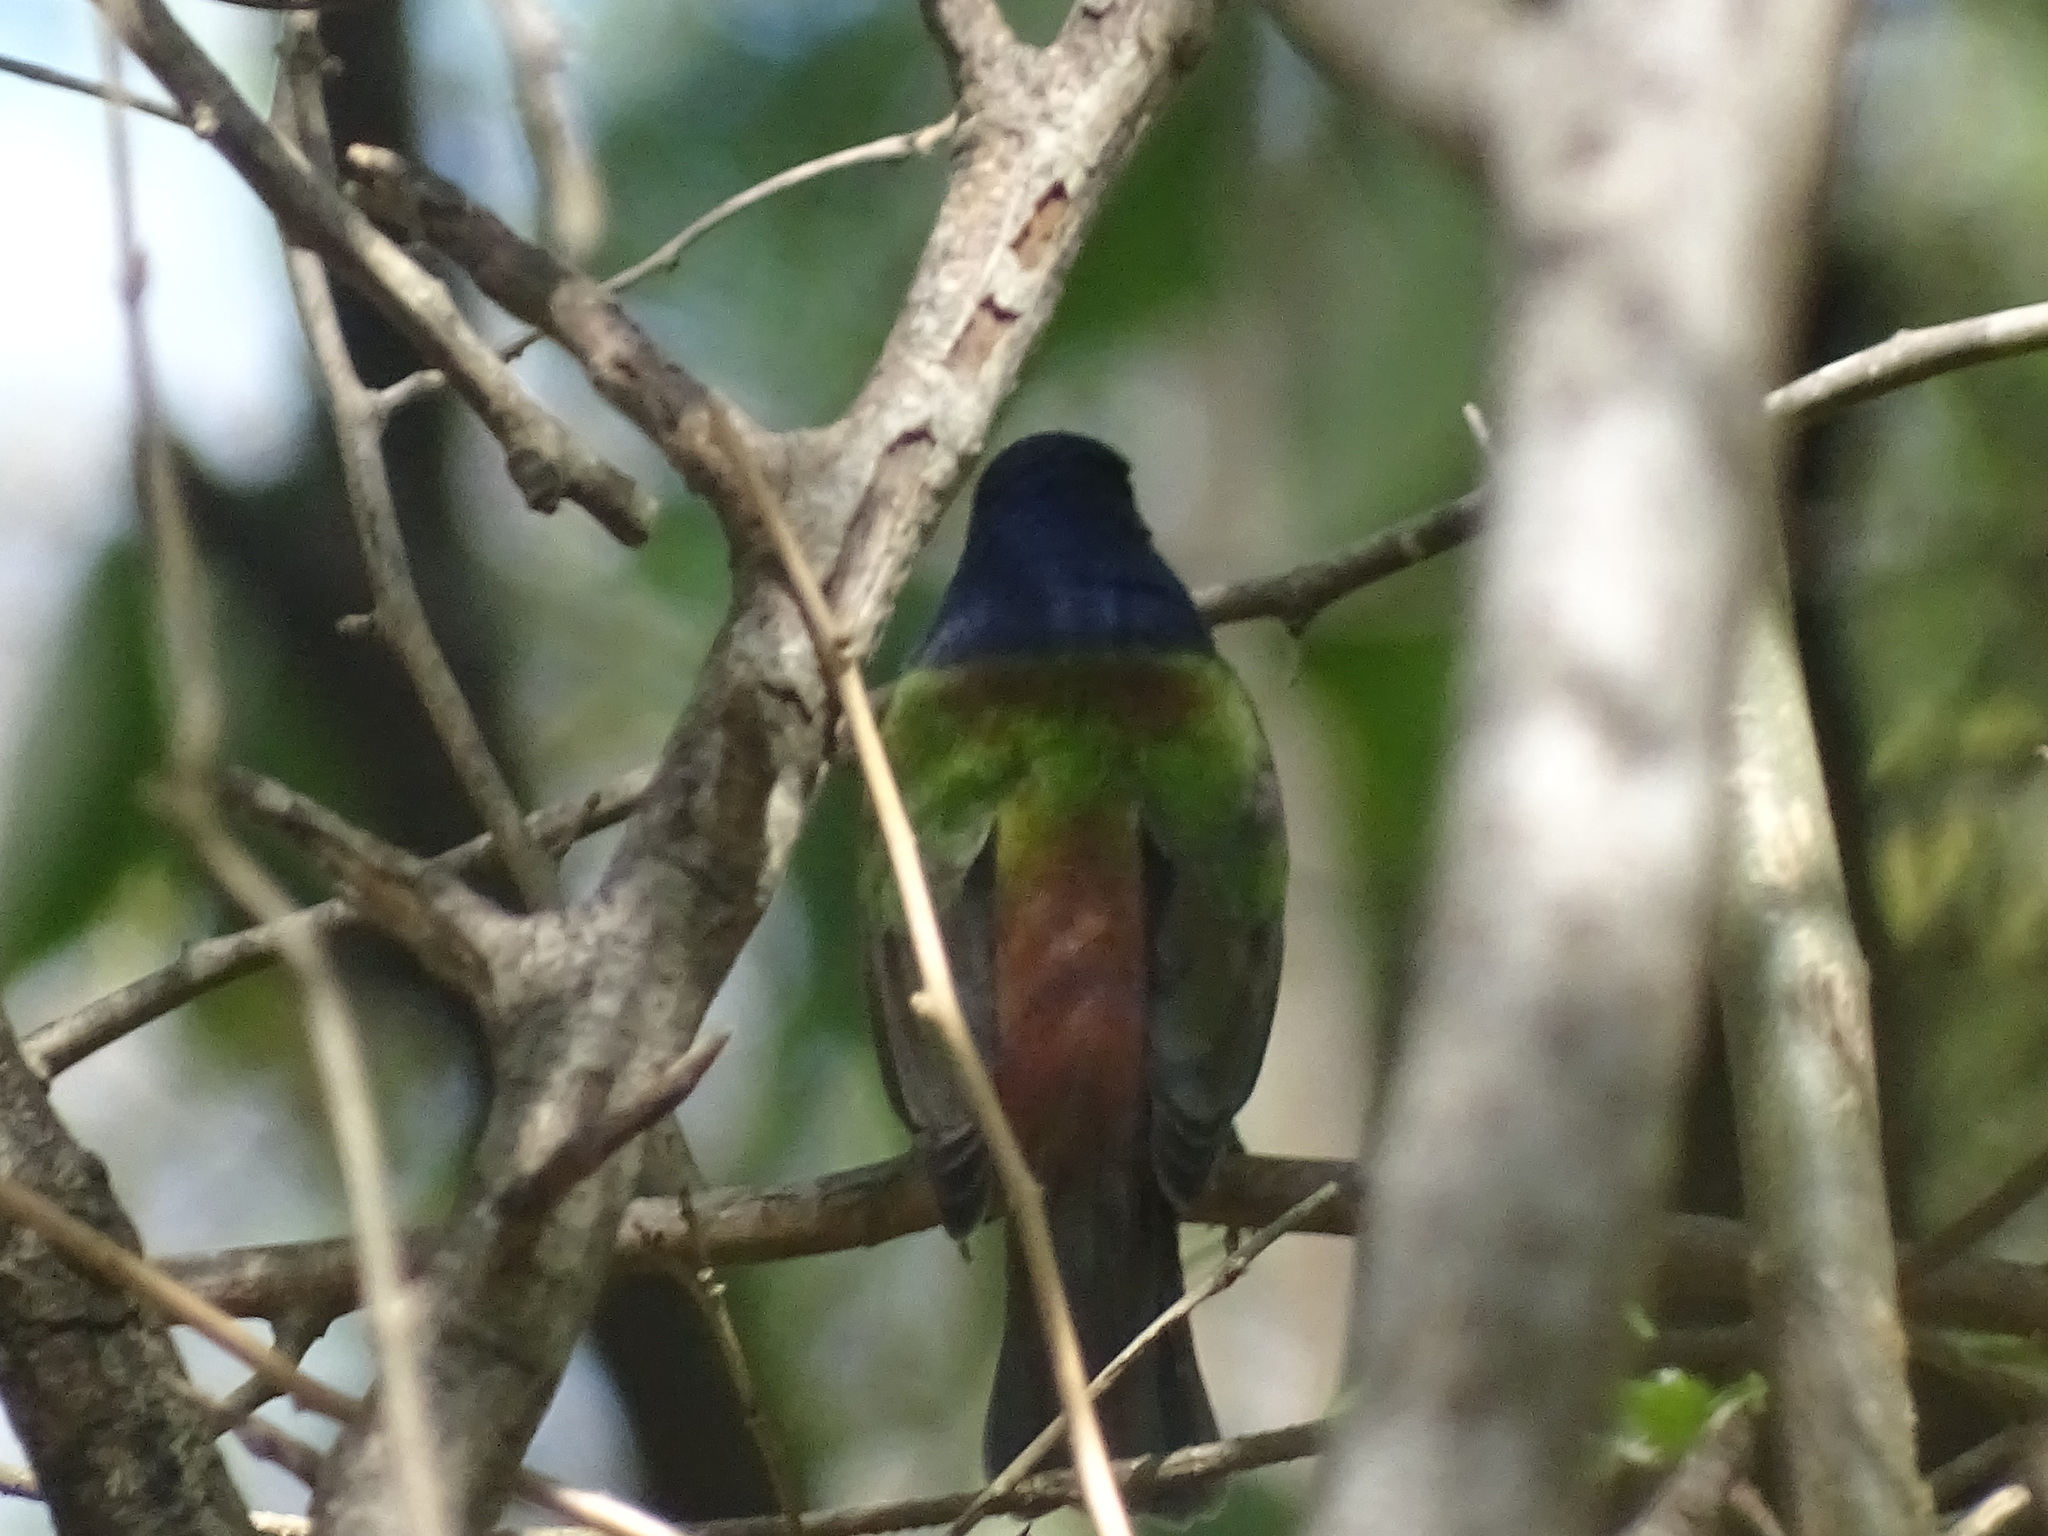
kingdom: Animalia
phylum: Chordata
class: Aves
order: Passeriformes
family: Cardinalidae
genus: Passerina
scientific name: Passerina ciris
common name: Painted bunting
